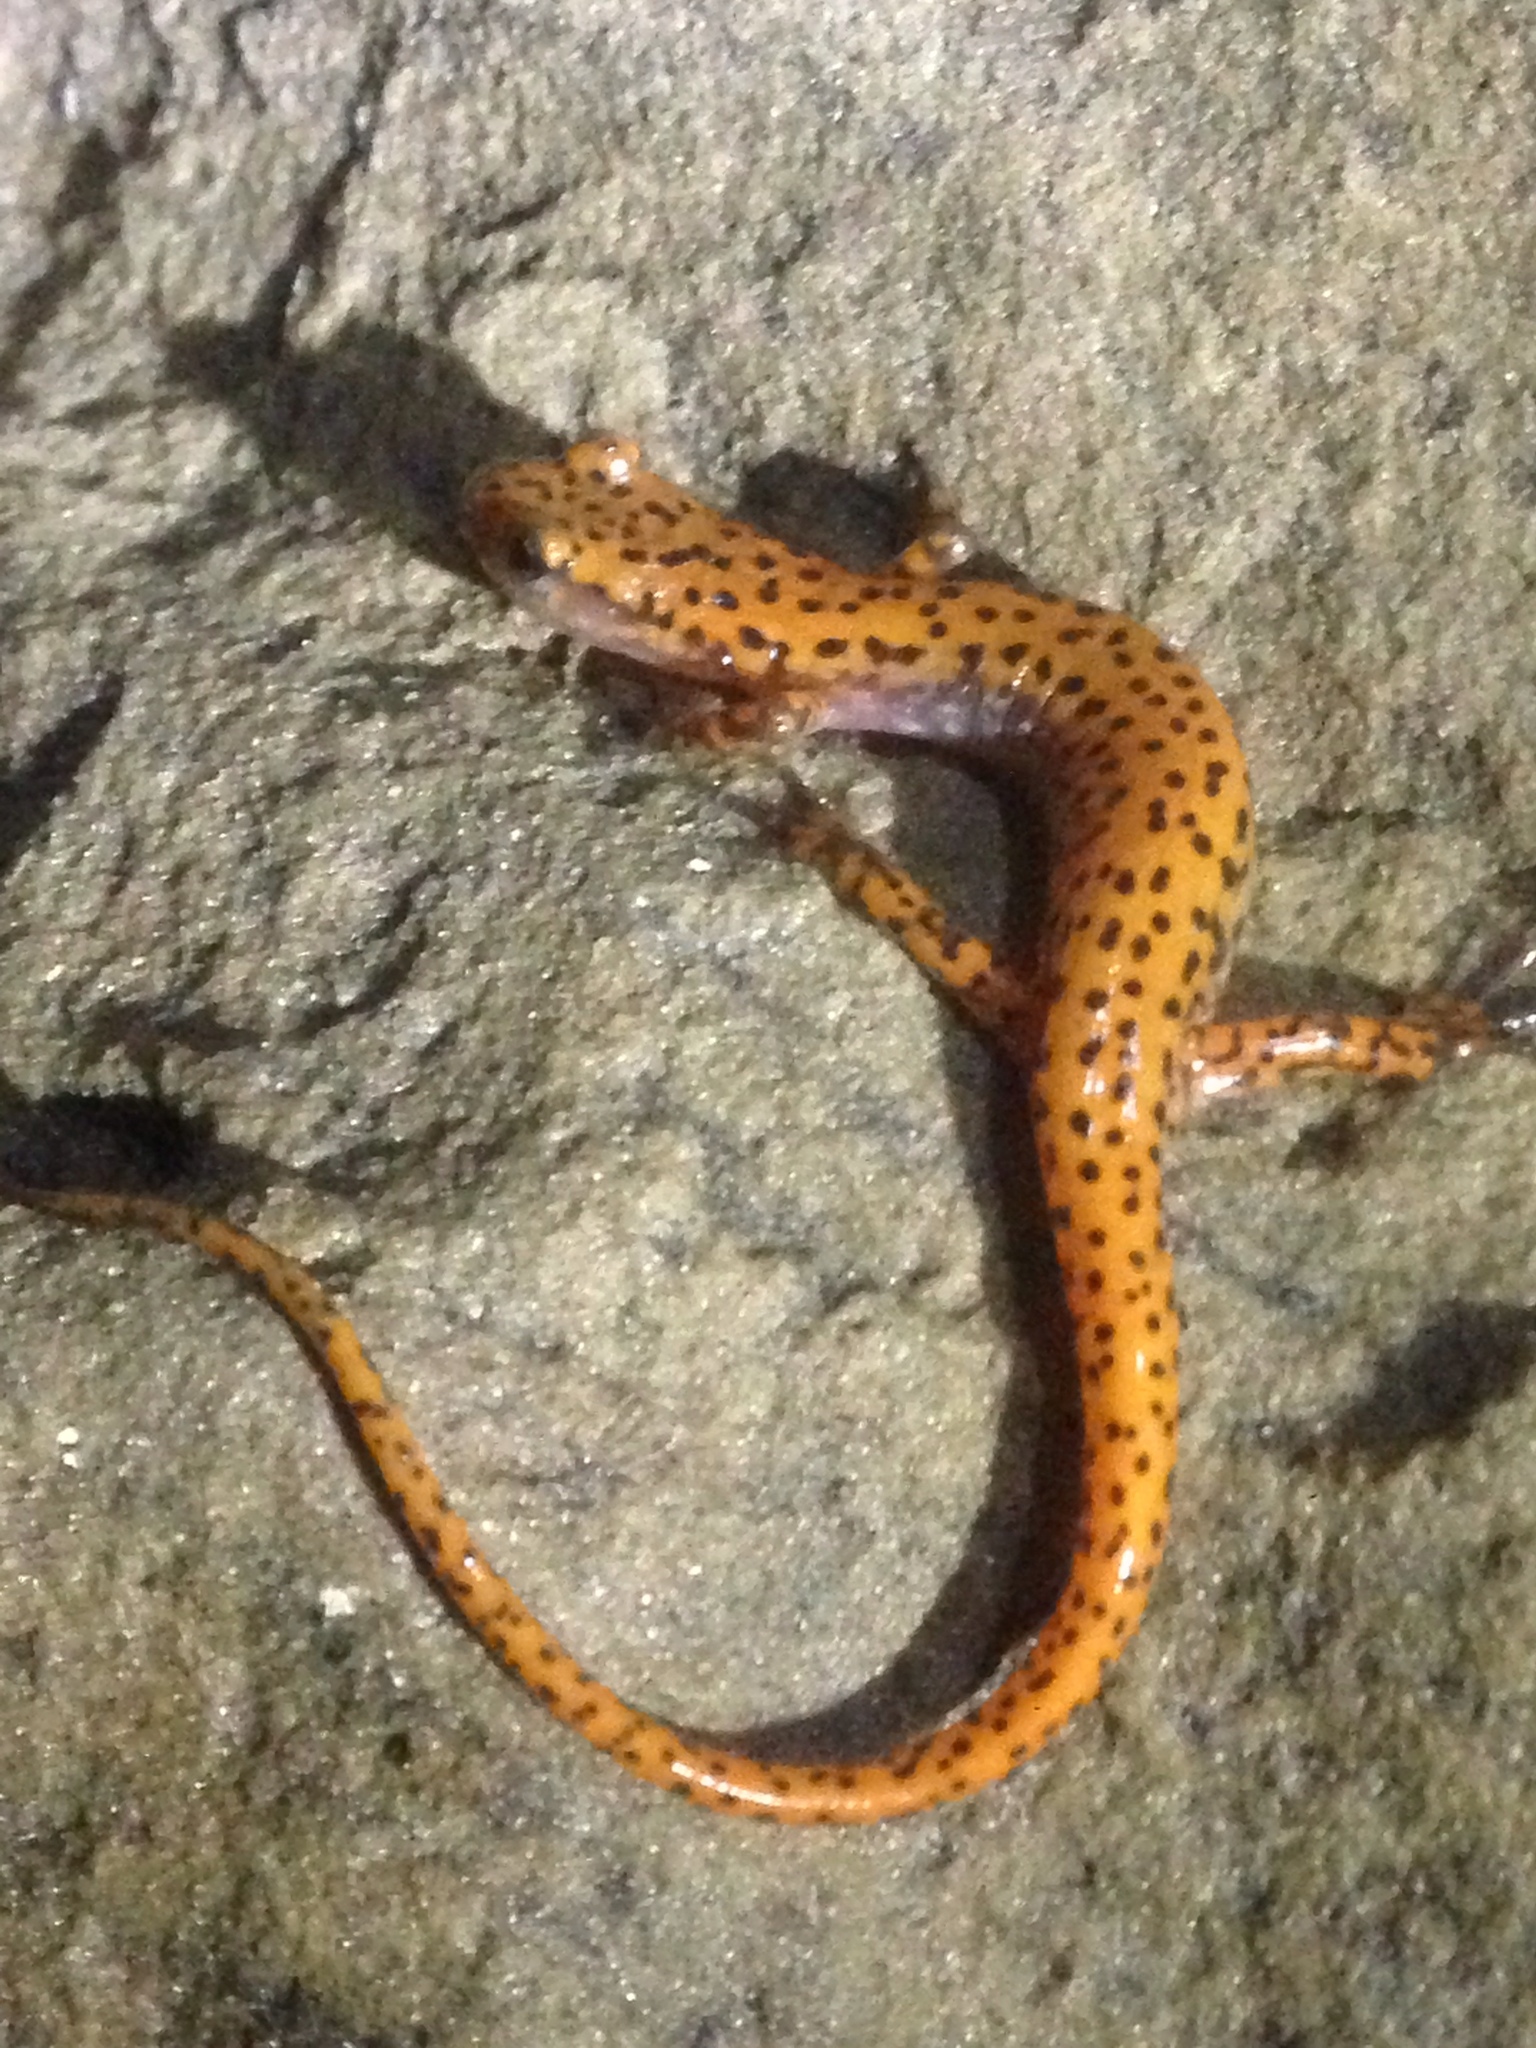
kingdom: Animalia
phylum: Chordata
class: Amphibia
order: Caudata
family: Plethodontidae
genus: Eurycea
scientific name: Eurycea lucifuga
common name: Cave salamander
